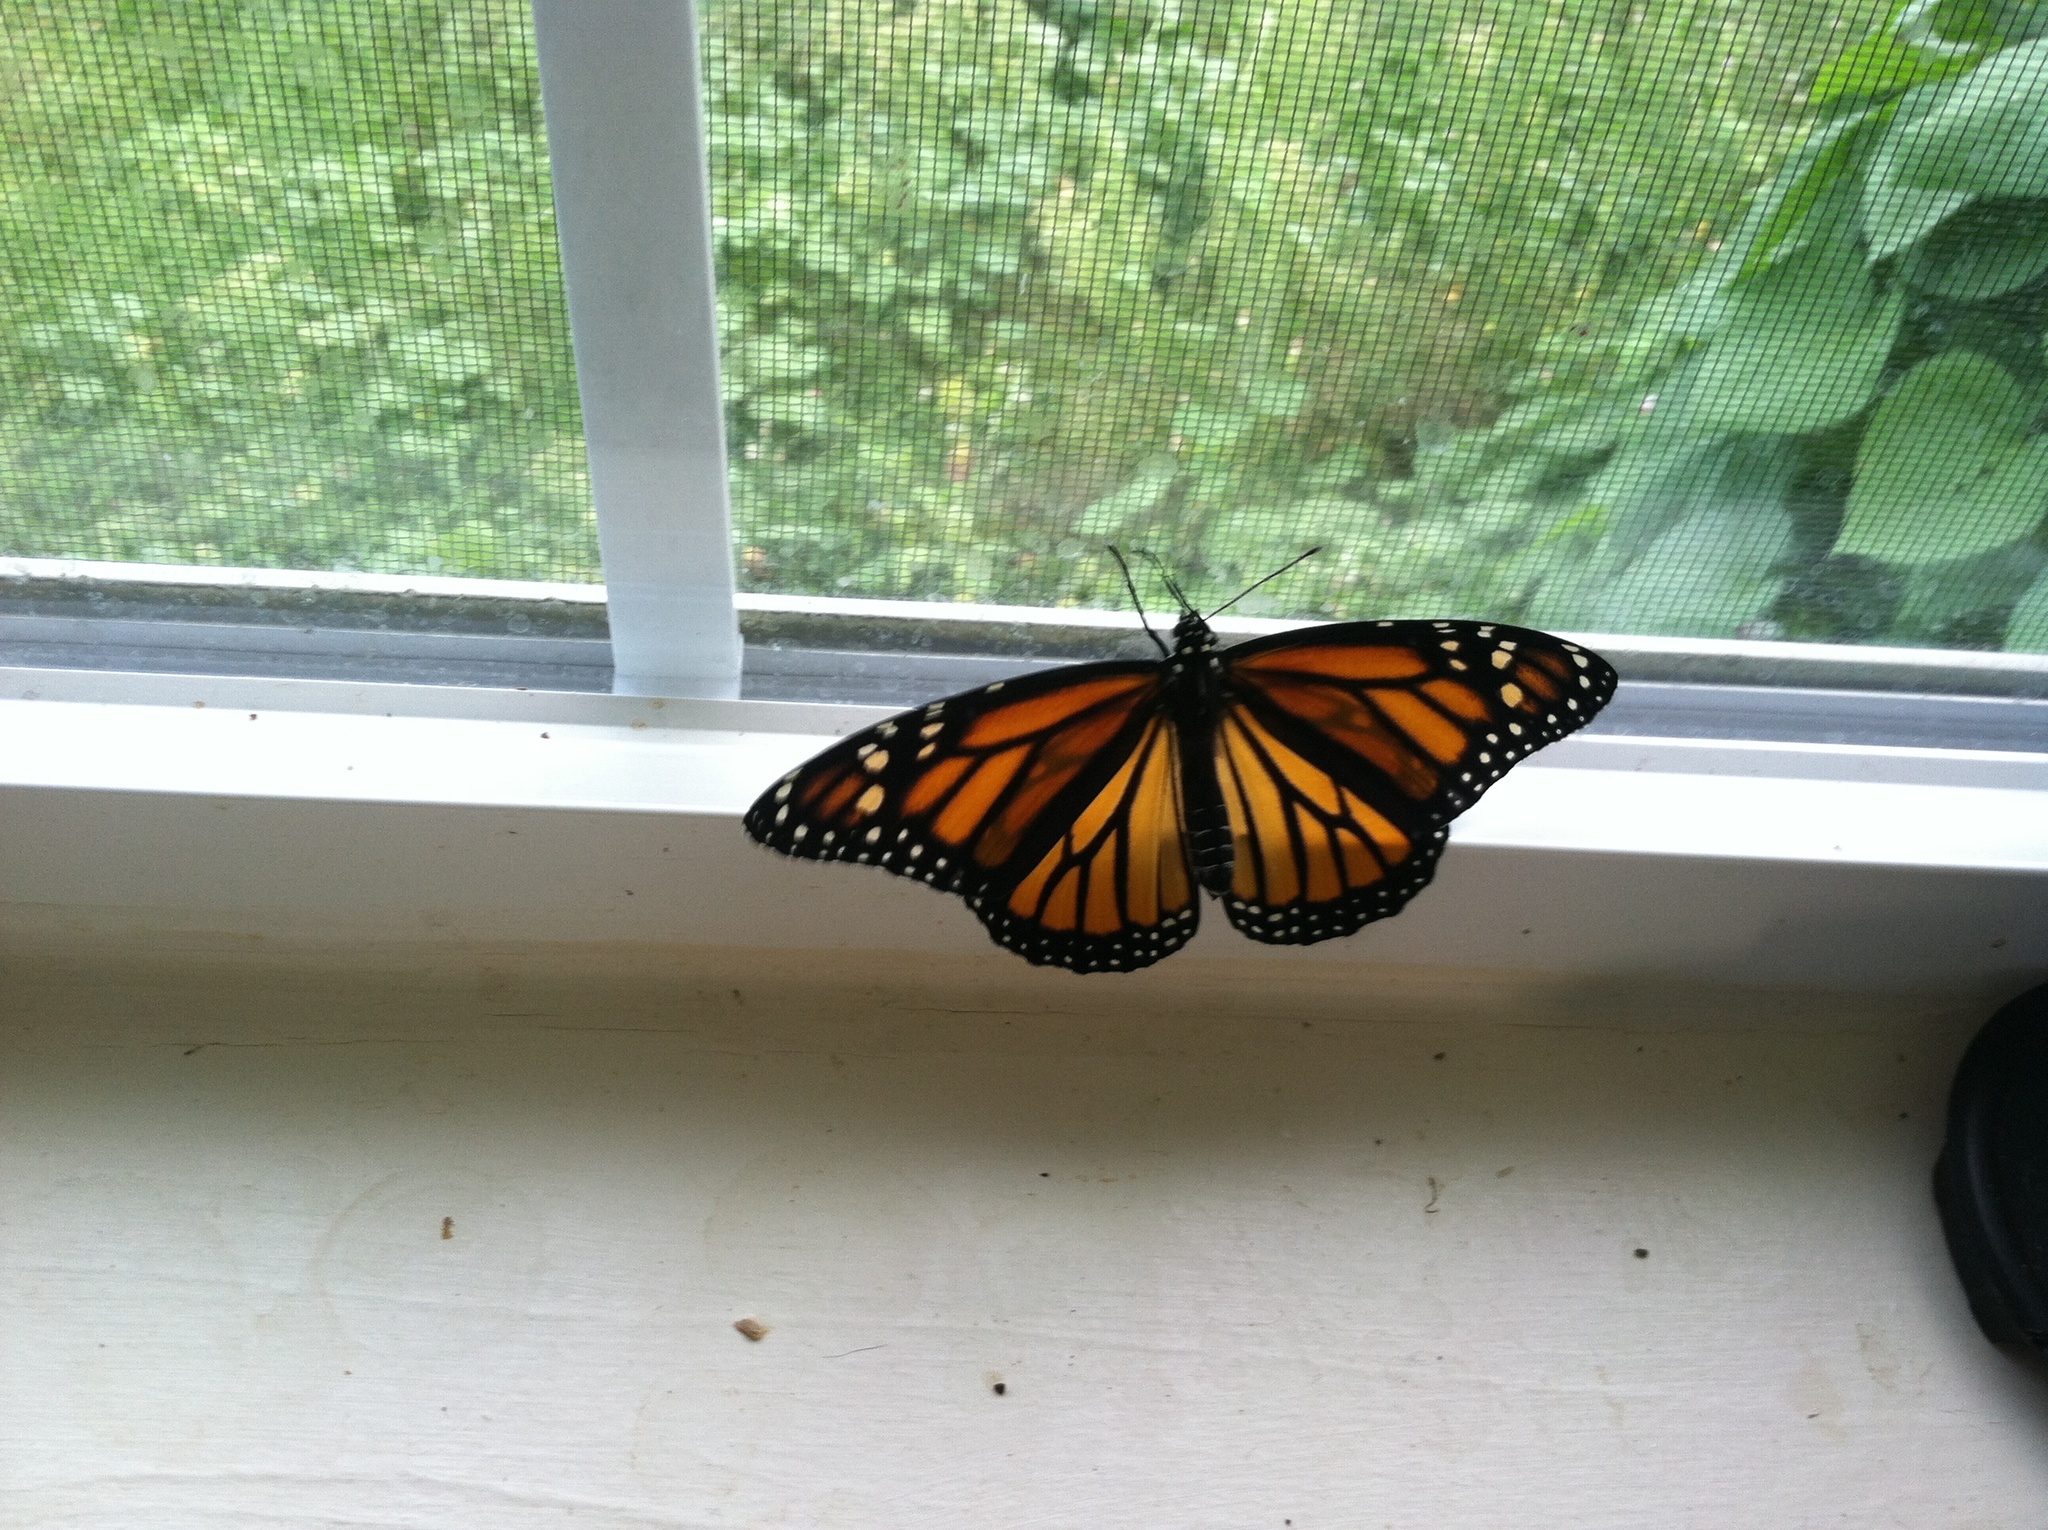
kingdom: Animalia
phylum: Arthropoda
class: Insecta
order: Lepidoptera
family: Nymphalidae
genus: Danaus
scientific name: Danaus plexippus
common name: Monarch
